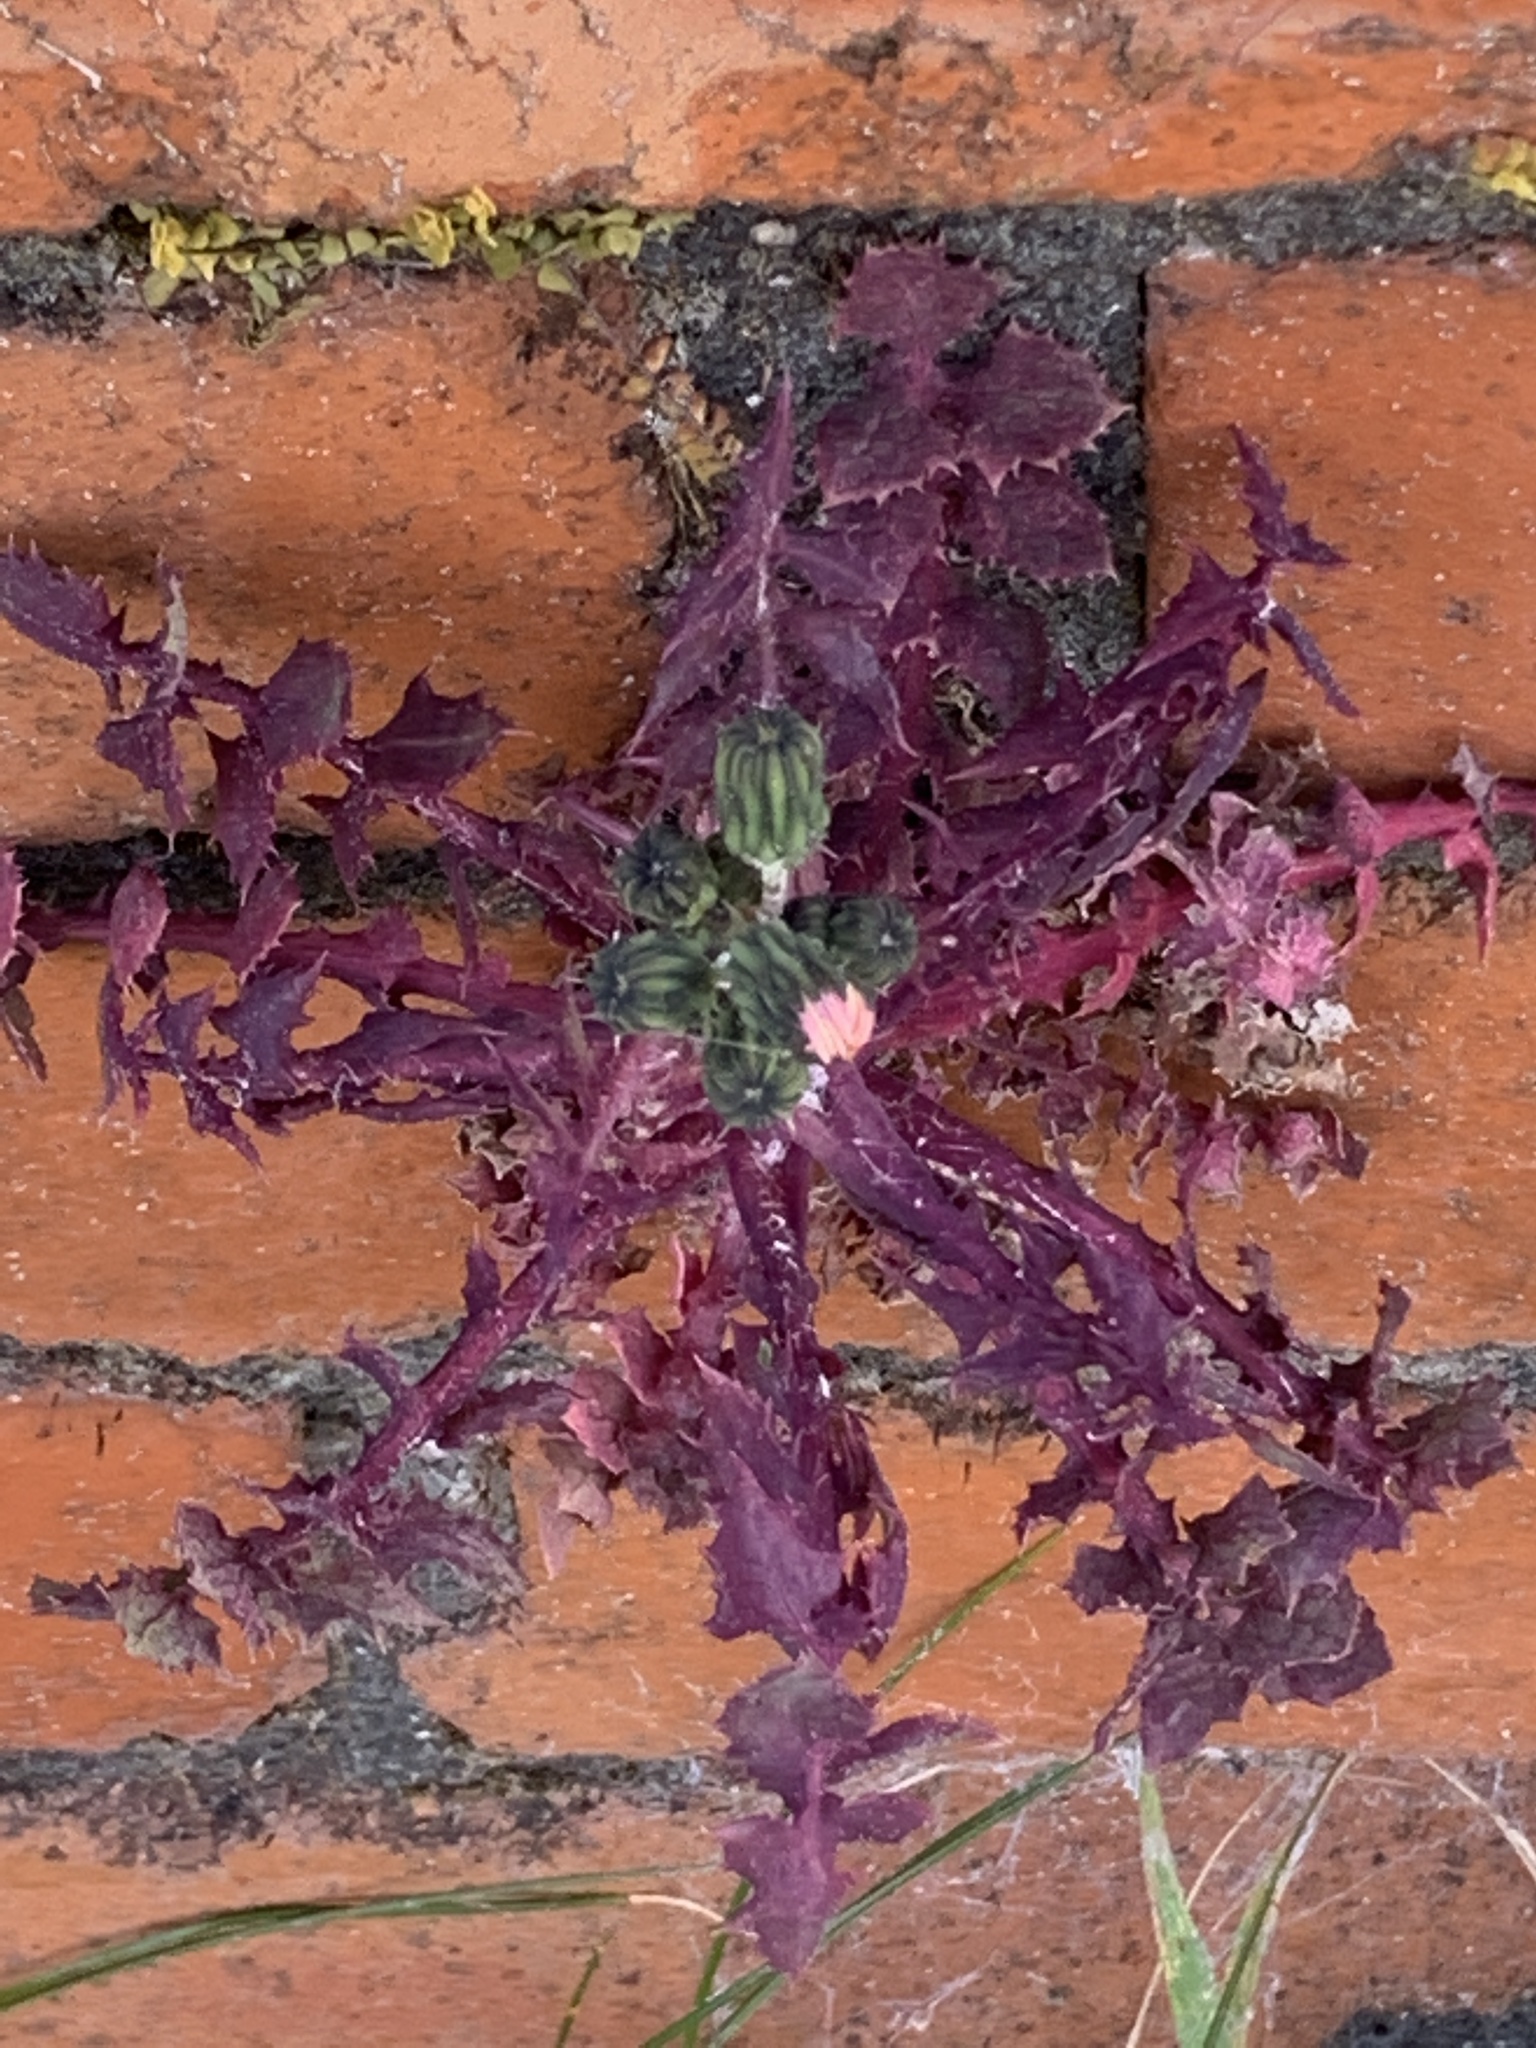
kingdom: Plantae
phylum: Tracheophyta
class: Magnoliopsida
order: Asterales
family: Asteraceae
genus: Sonchus
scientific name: Sonchus oleraceus
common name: Common sowthistle
